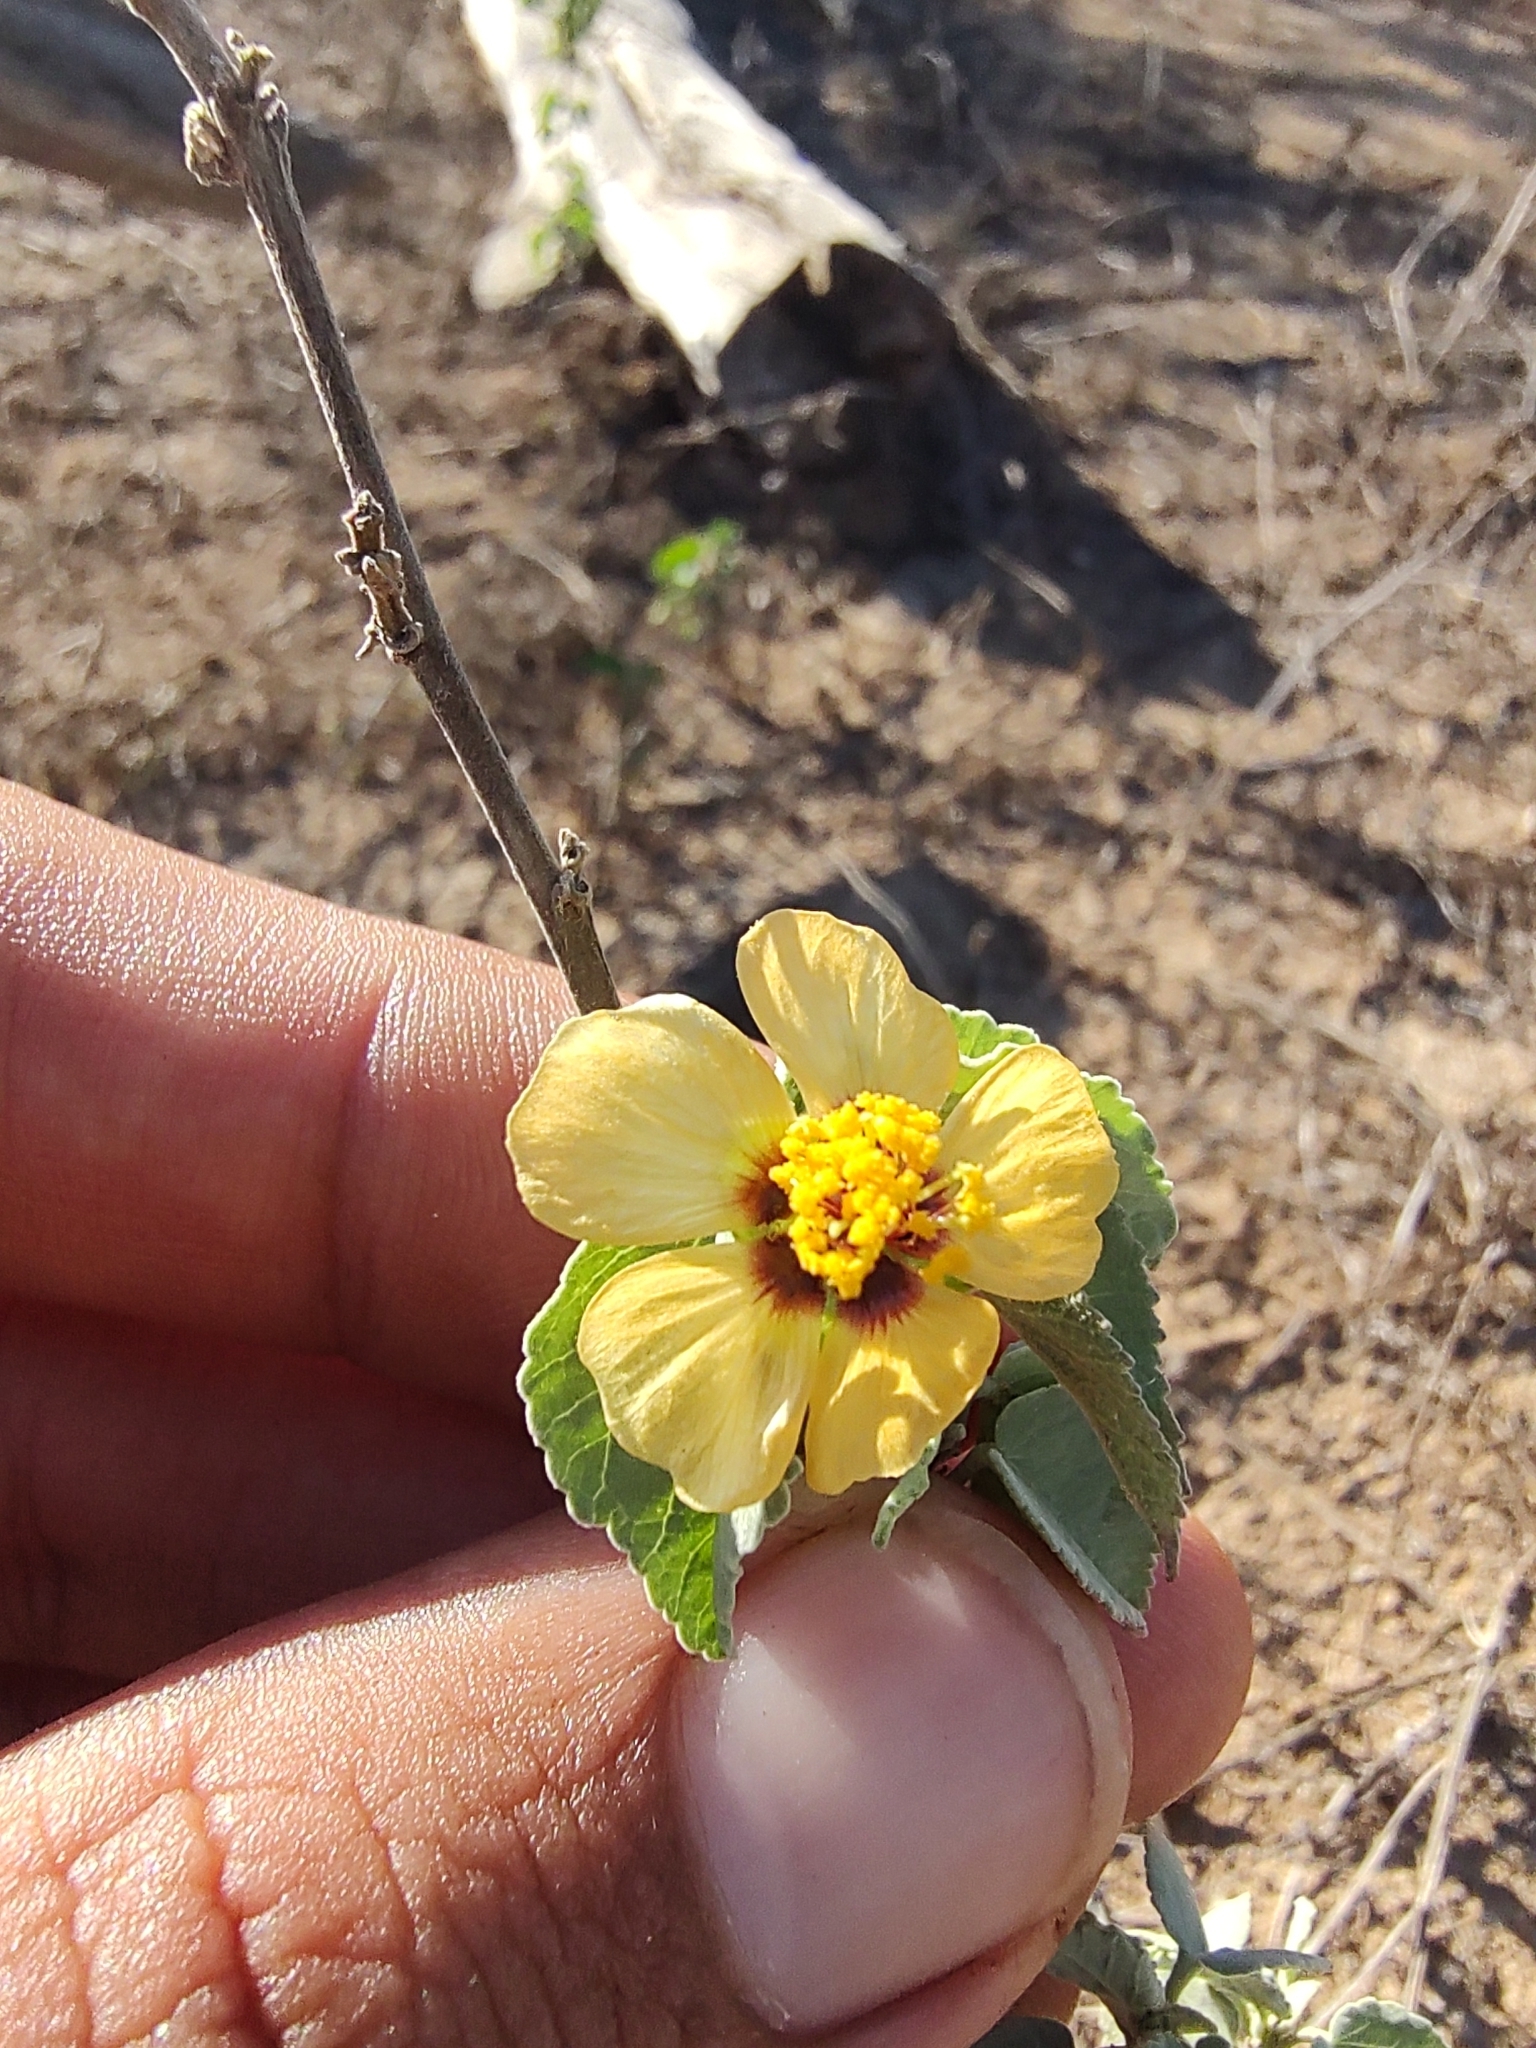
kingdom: Plantae
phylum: Tracheophyta
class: Magnoliopsida
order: Malvales
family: Malvaceae
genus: Abutilon
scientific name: Abutilon incanum
